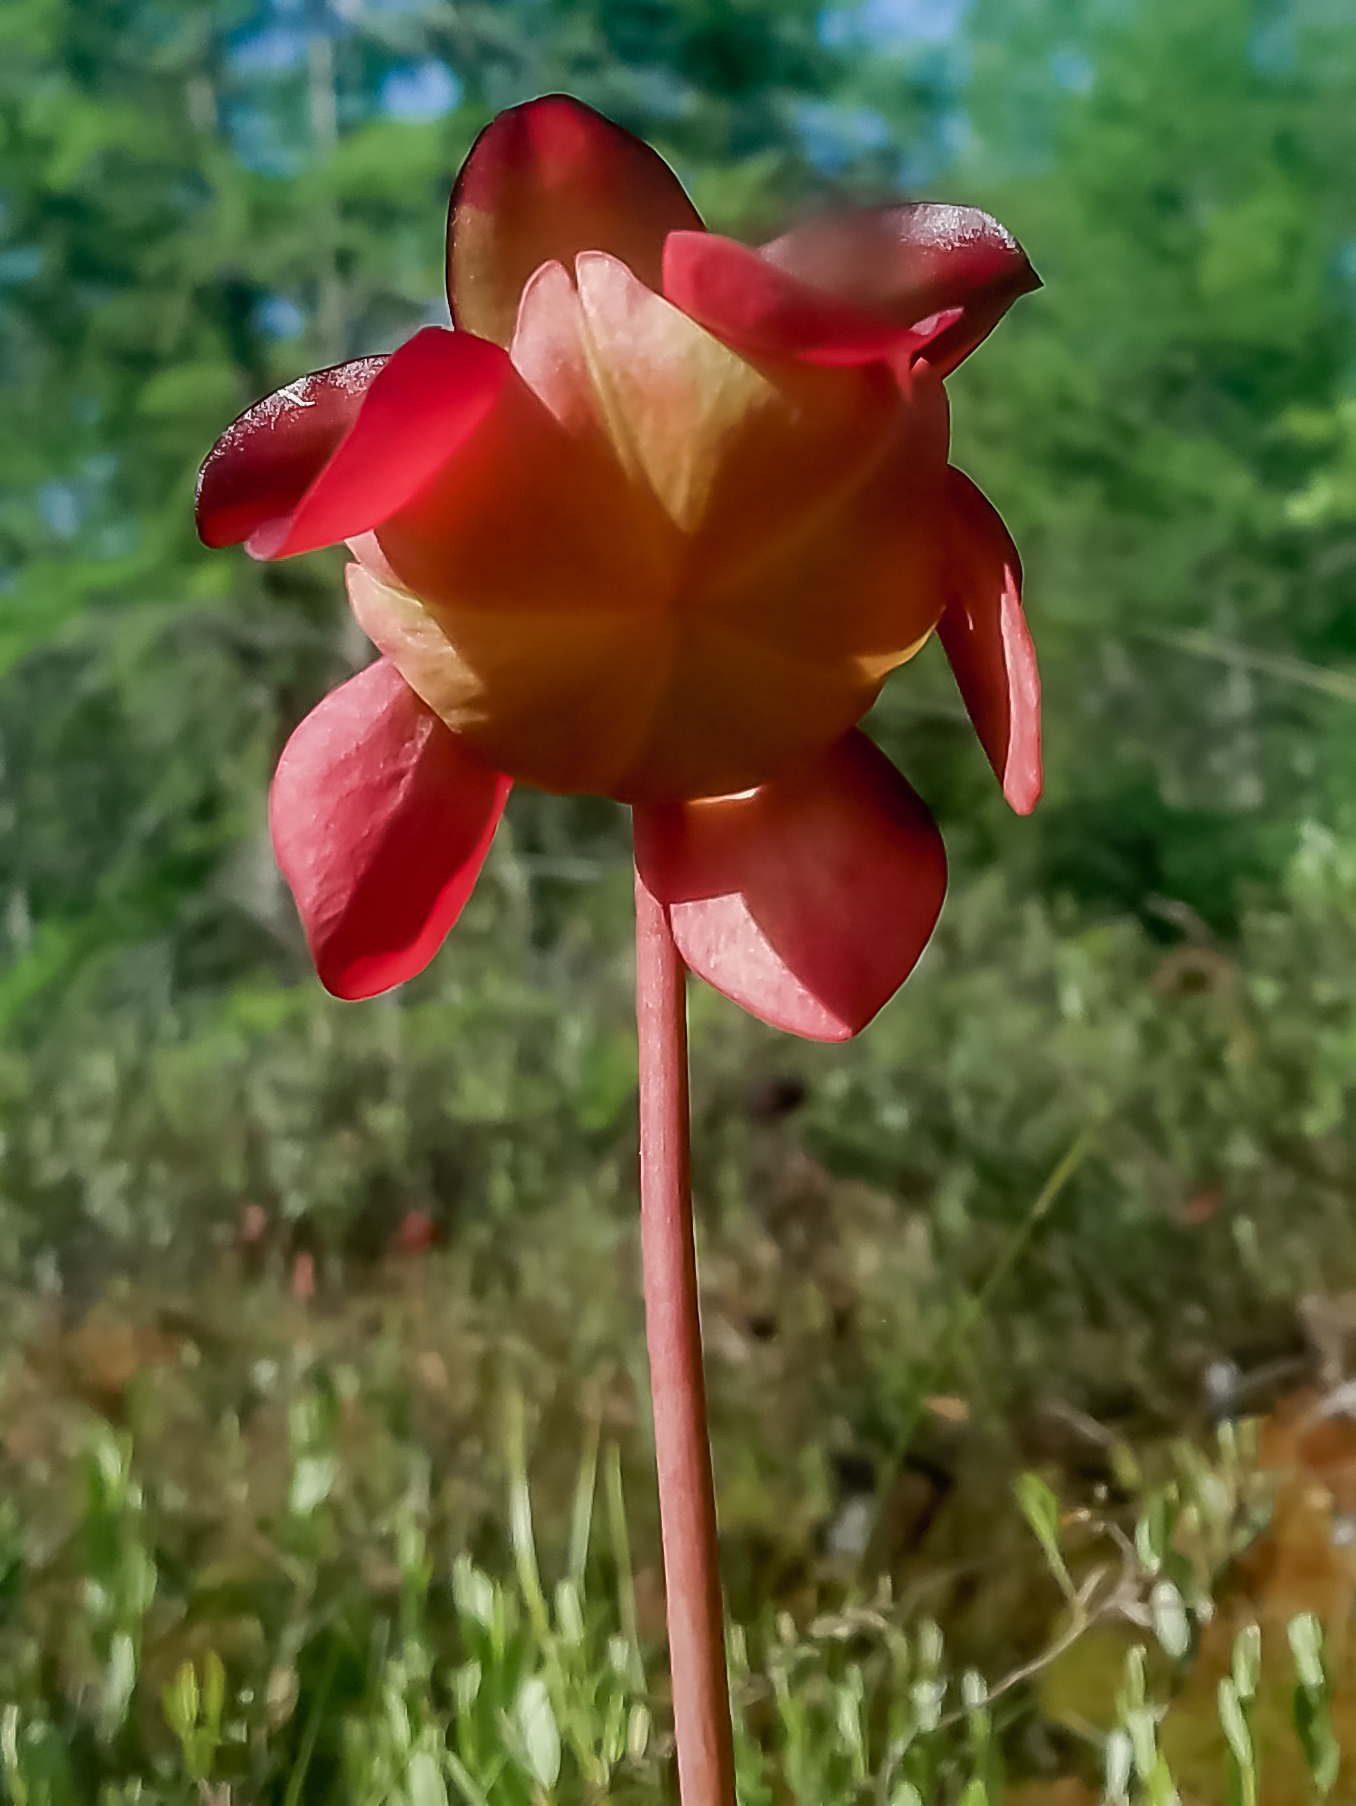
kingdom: Plantae
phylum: Tracheophyta
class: Magnoliopsida
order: Ericales
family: Sarraceniaceae
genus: Sarracenia
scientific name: Sarracenia purpurea
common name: Pitcherplant
